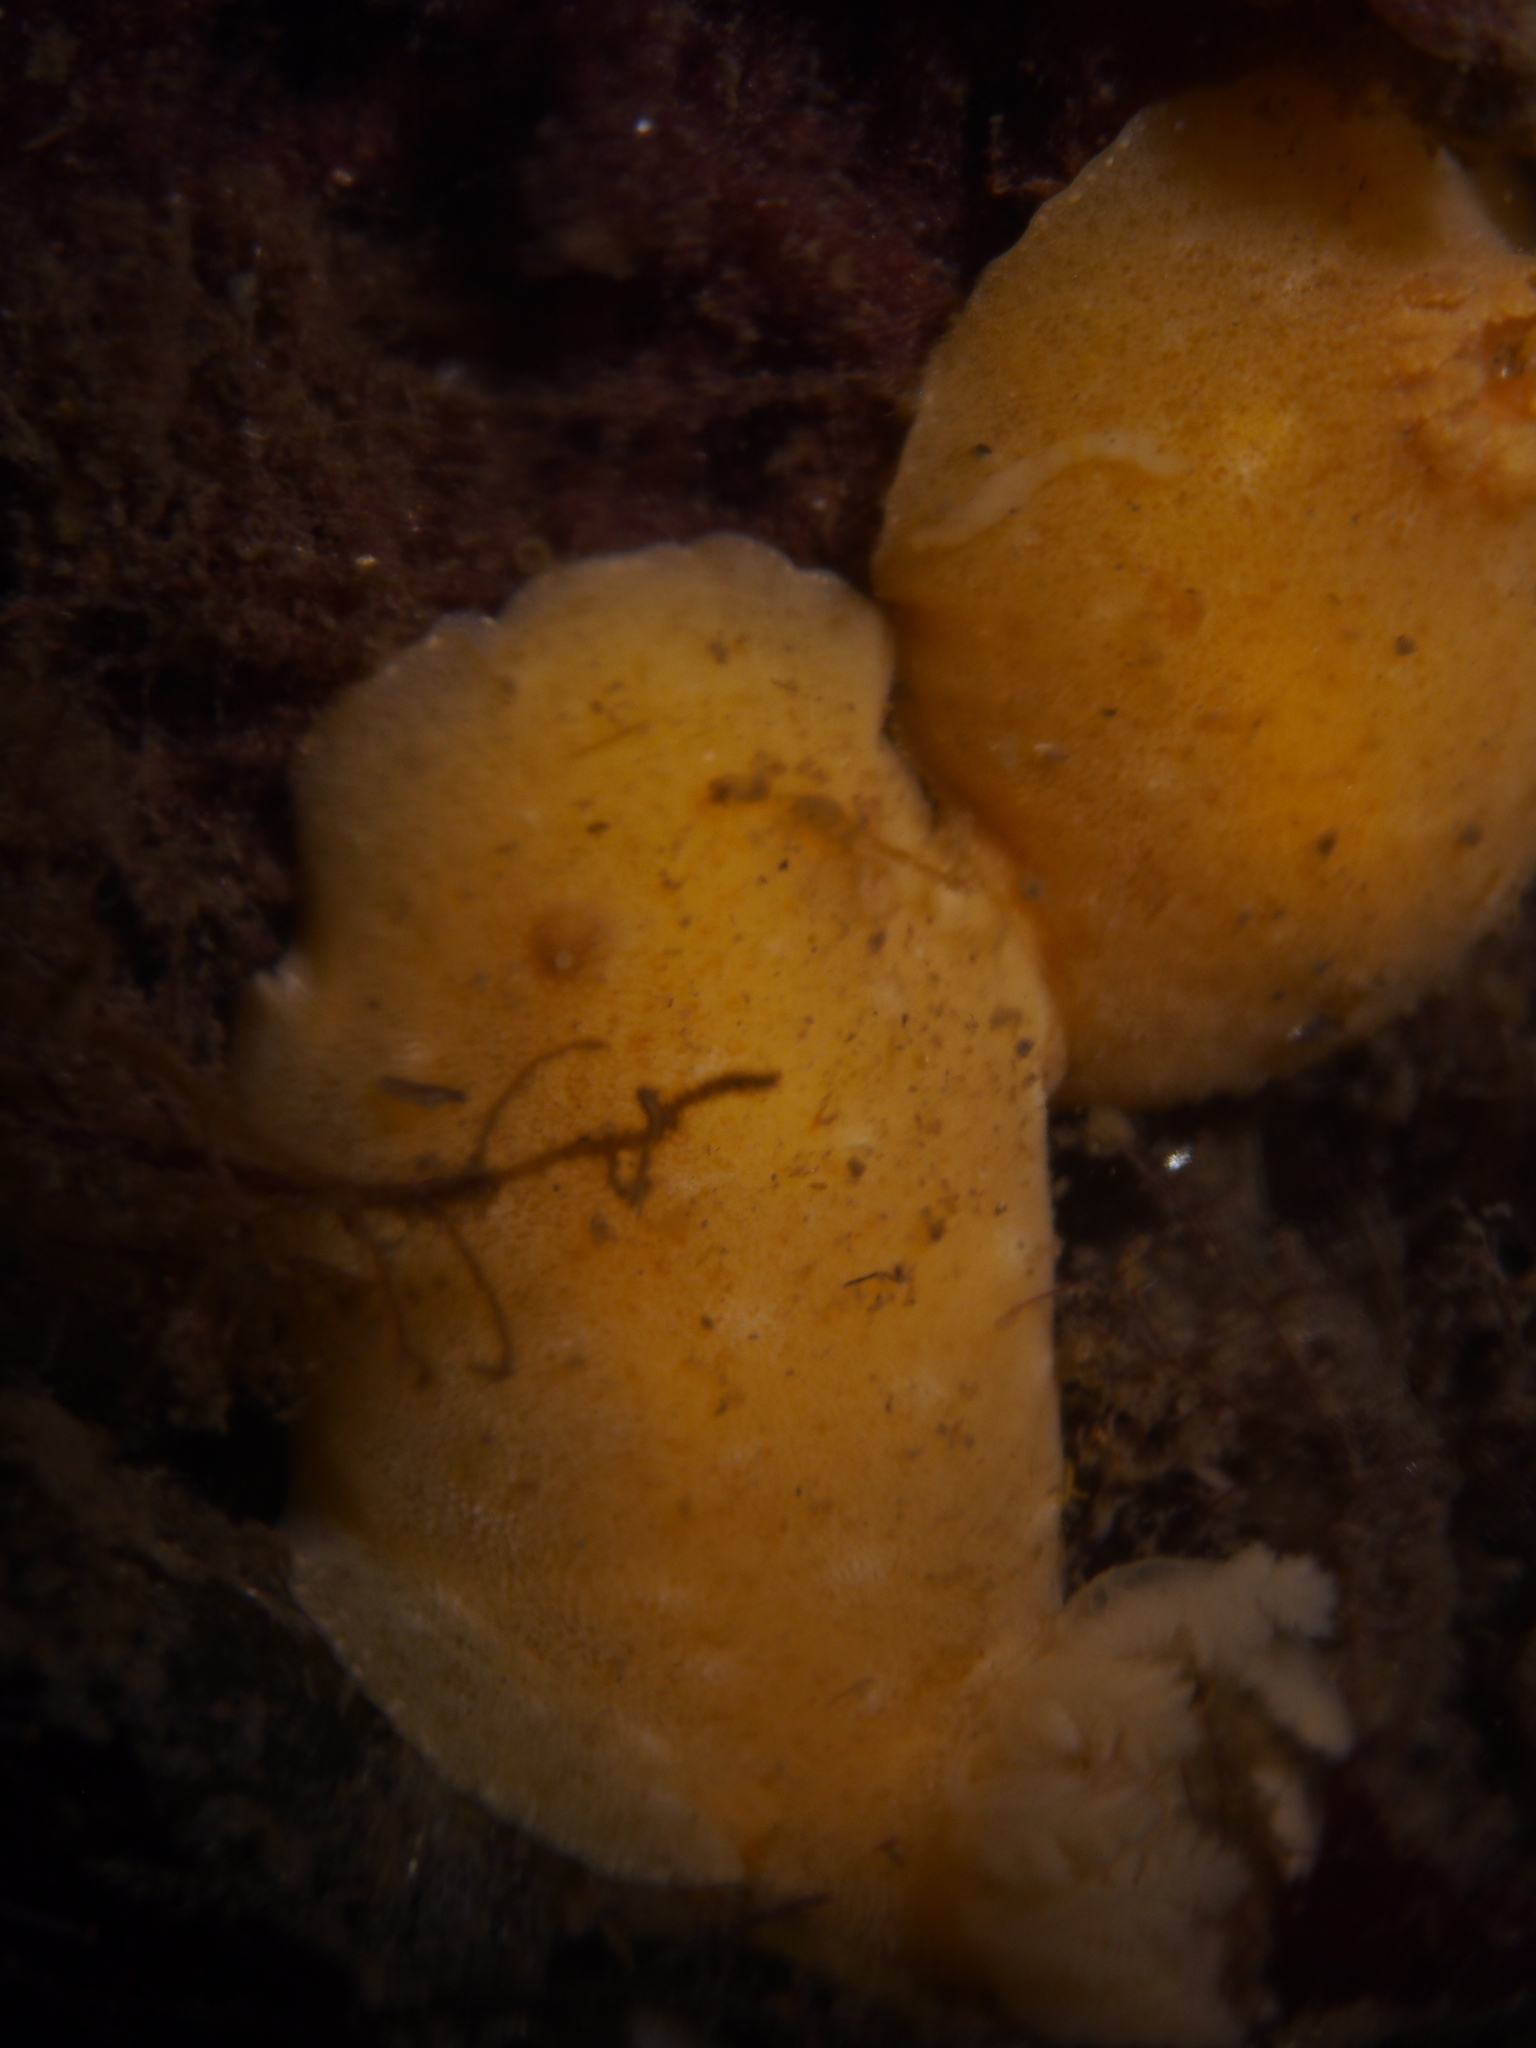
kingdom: Animalia
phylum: Mollusca
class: Gastropoda
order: Nudibranchia
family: Discodorididae
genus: Jorunna
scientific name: Jorunna tomentosa
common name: Grey sea slug
